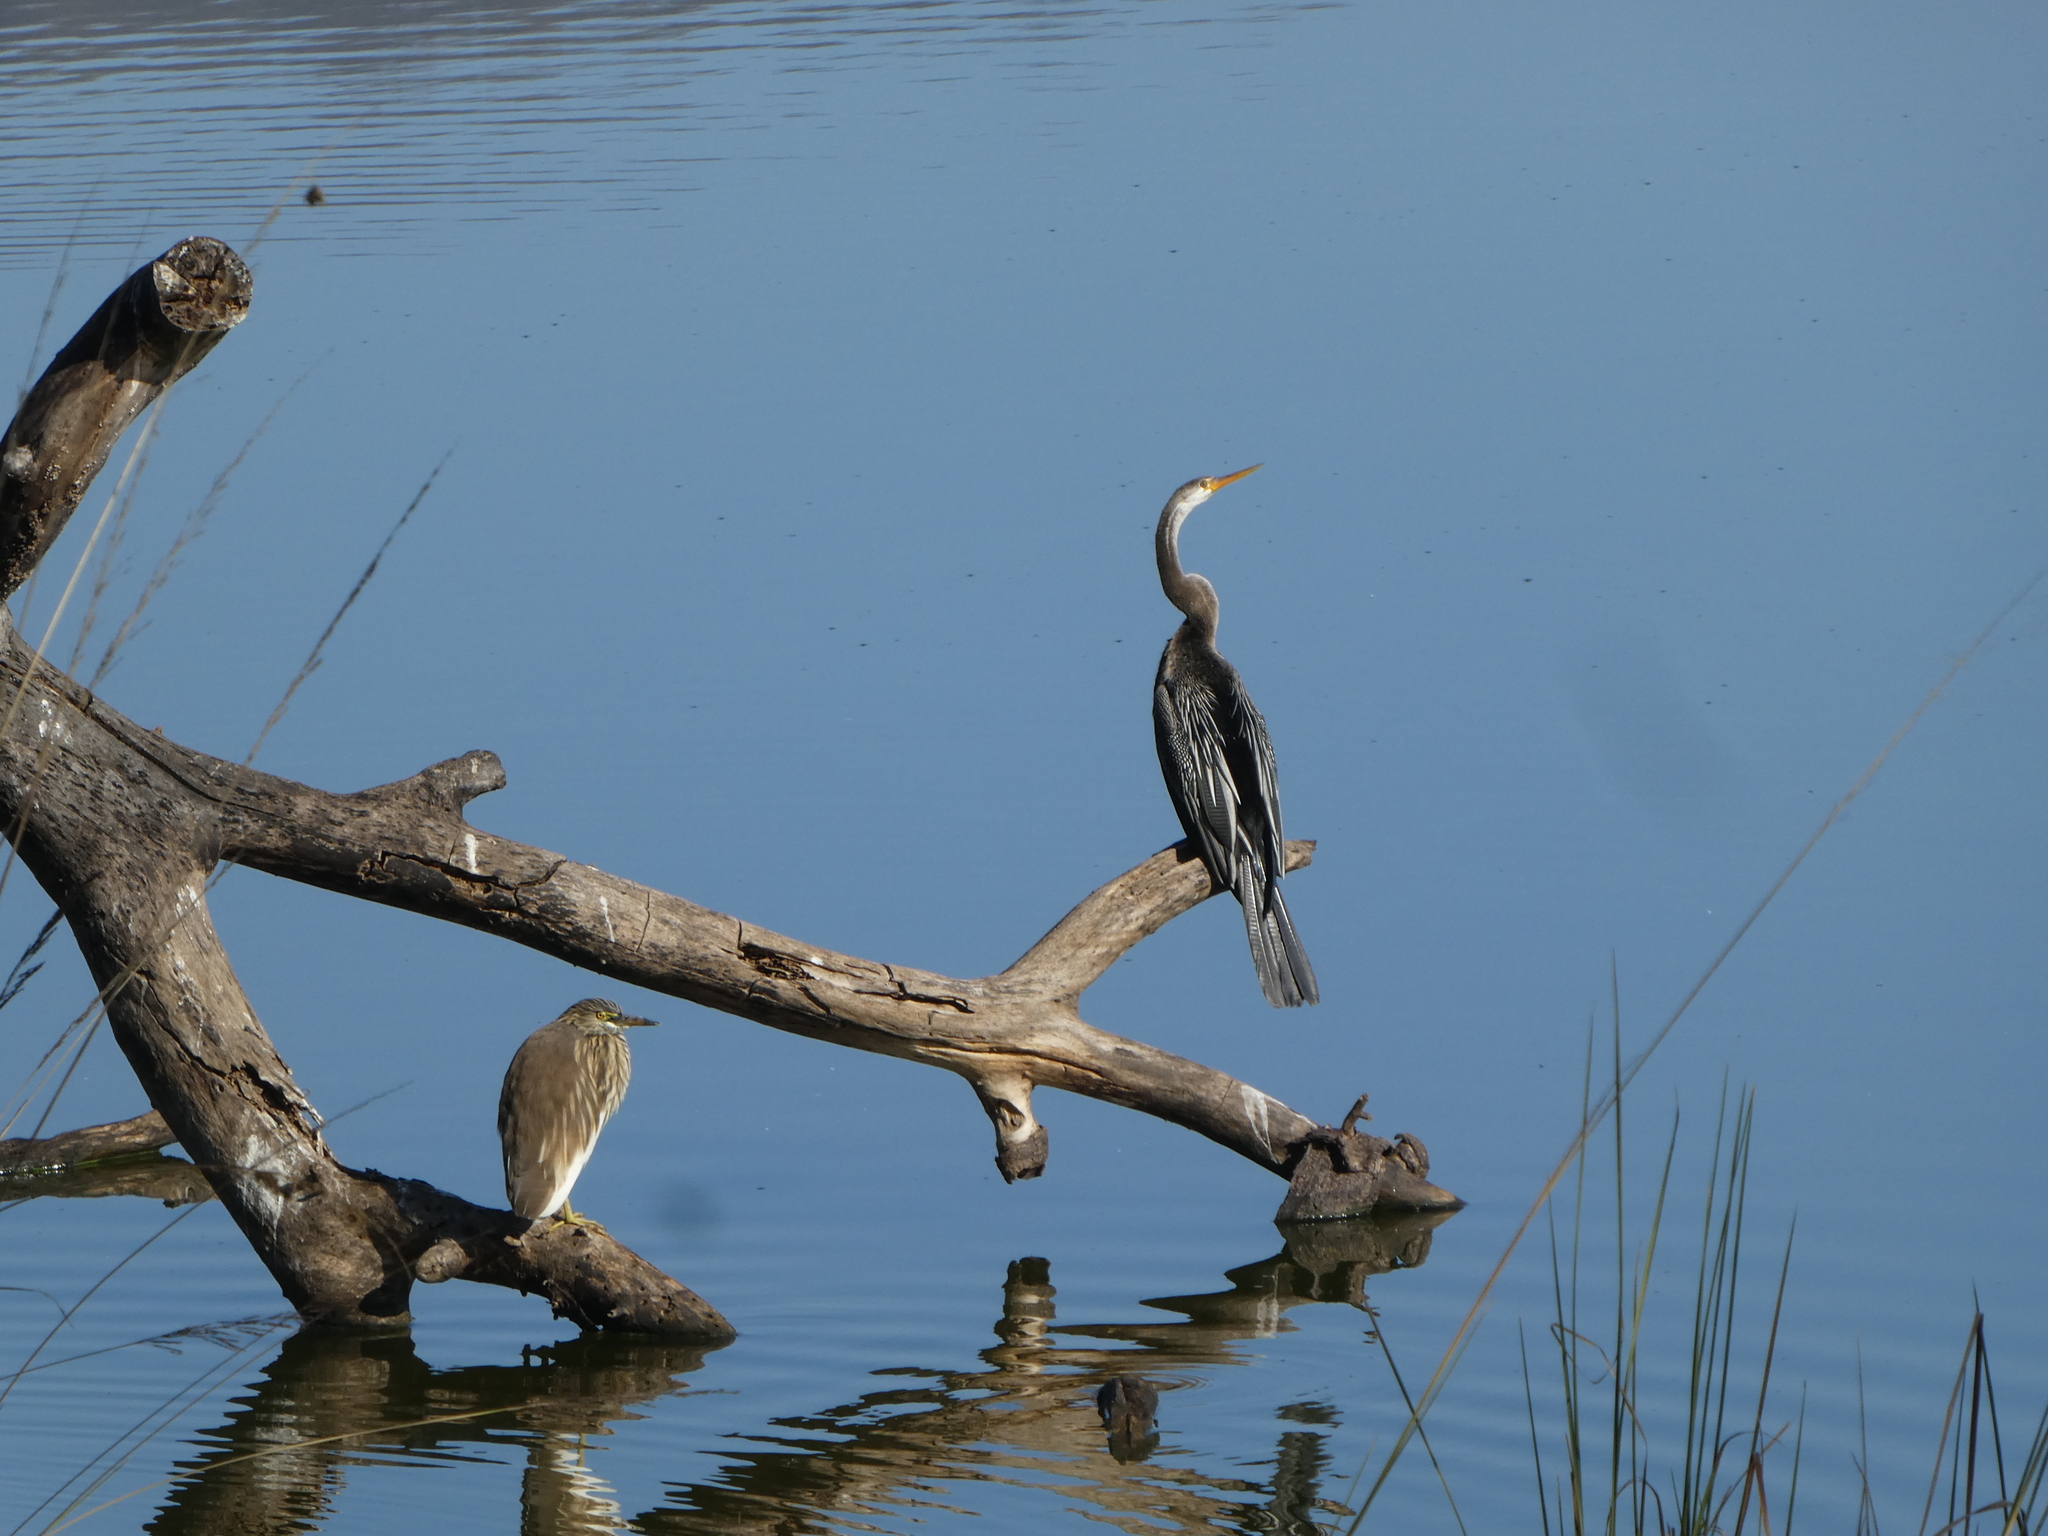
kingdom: Animalia
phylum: Chordata
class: Aves
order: Suliformes
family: Anhingidae
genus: Anhinga
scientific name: Anhinga melanogaster
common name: Oriental darter
